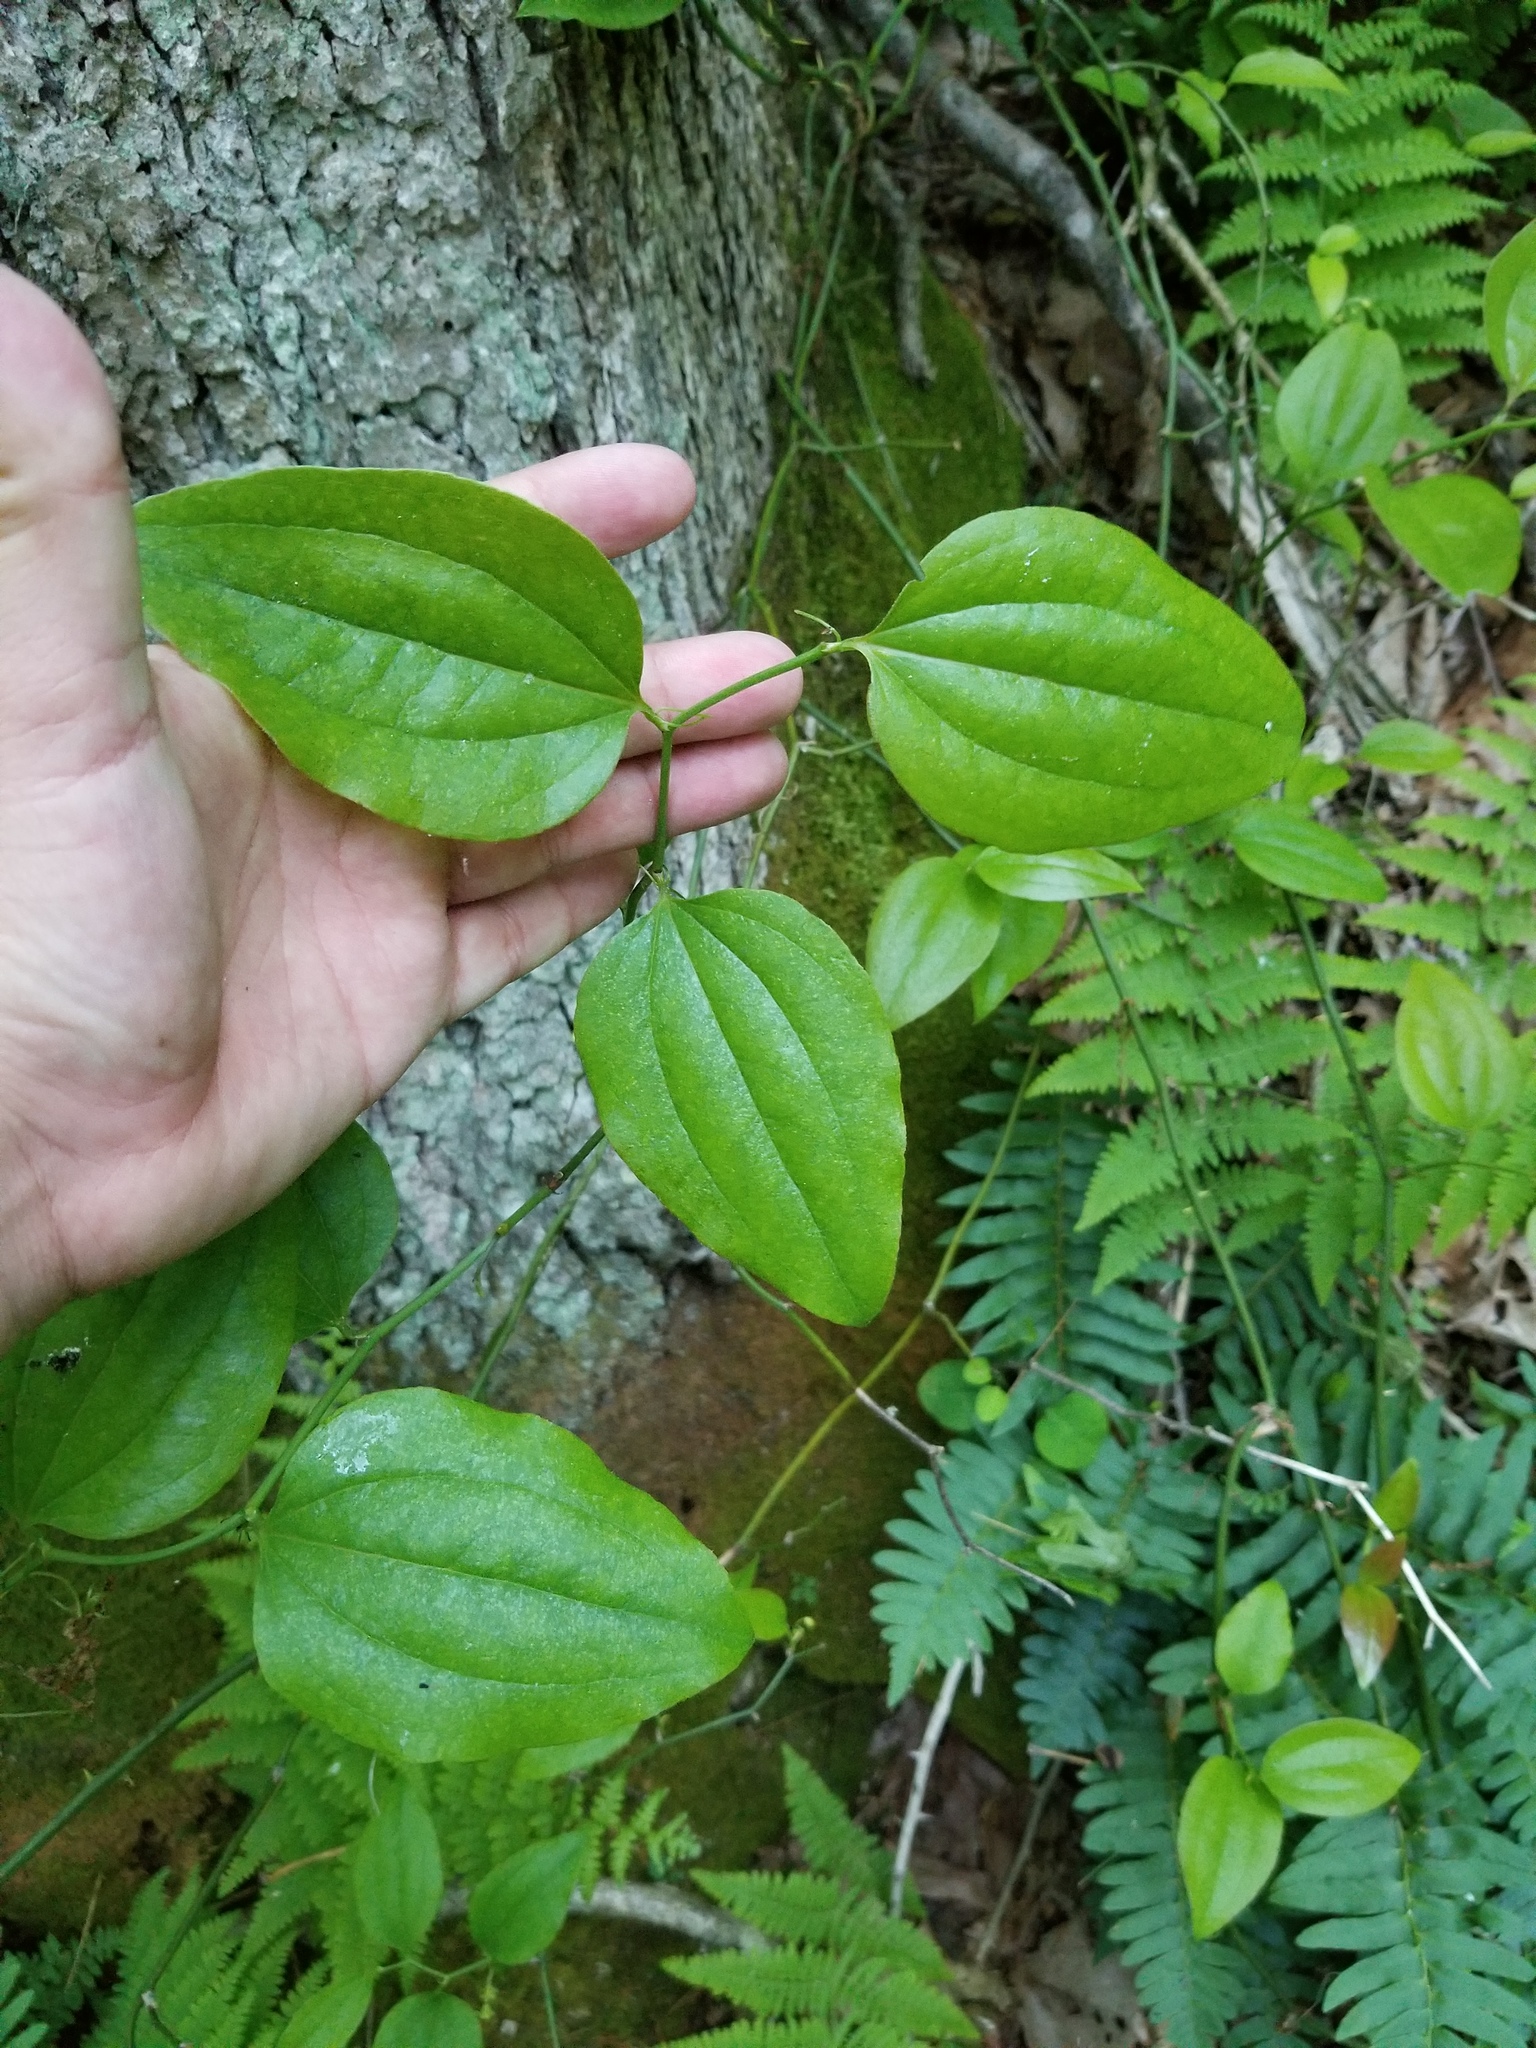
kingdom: Plantae
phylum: Tracheophyta
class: Liliopsida
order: Liliales
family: Smilacaceae
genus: Smilax
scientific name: Smilax rotundifolia
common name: Bullbriar
